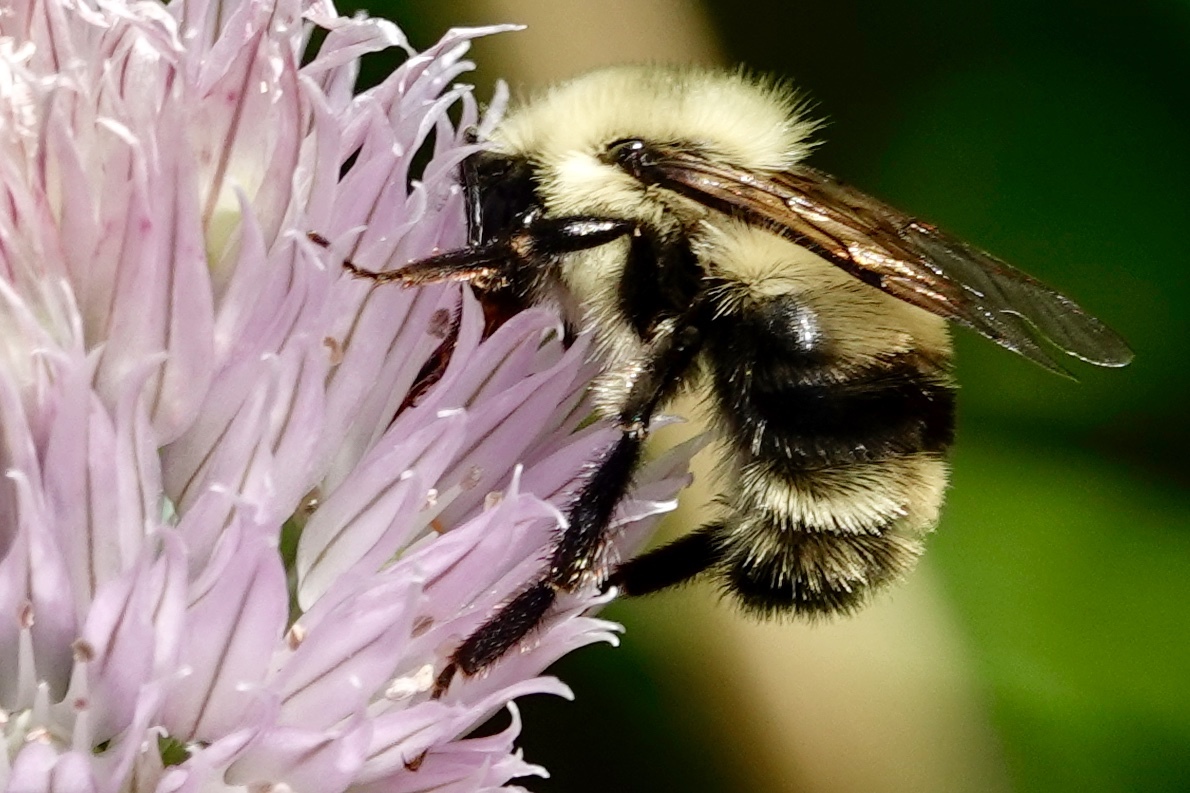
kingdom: Animalia
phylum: Arthropoda
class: Insecta
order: Hymenoptera
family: Apidae
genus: Bombus
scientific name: Bombus bimaculatus
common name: Two-spotted bumble bee
